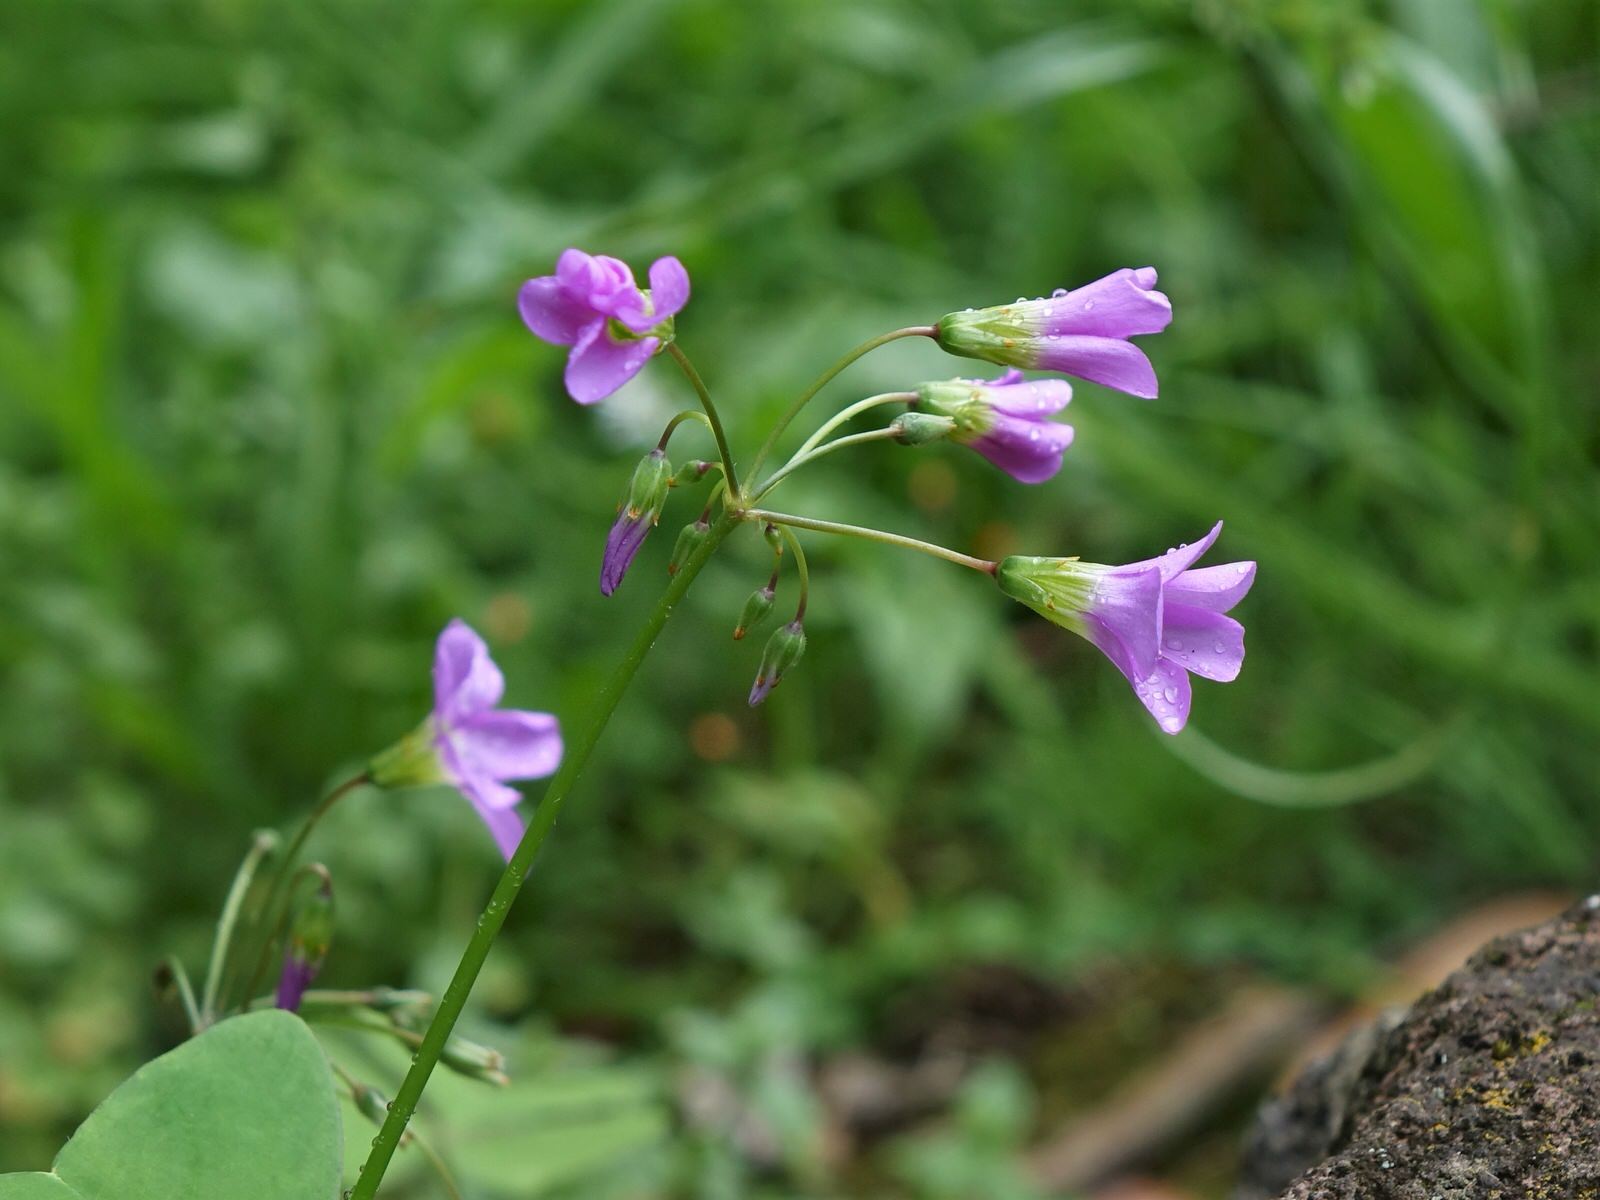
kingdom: Plantae
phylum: Tracheophyta
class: Magnoliopsida
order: Oxalidales
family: Oxalidaceae
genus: Oxalis
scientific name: Oxalis latifolia
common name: Garden pink-sorrel
